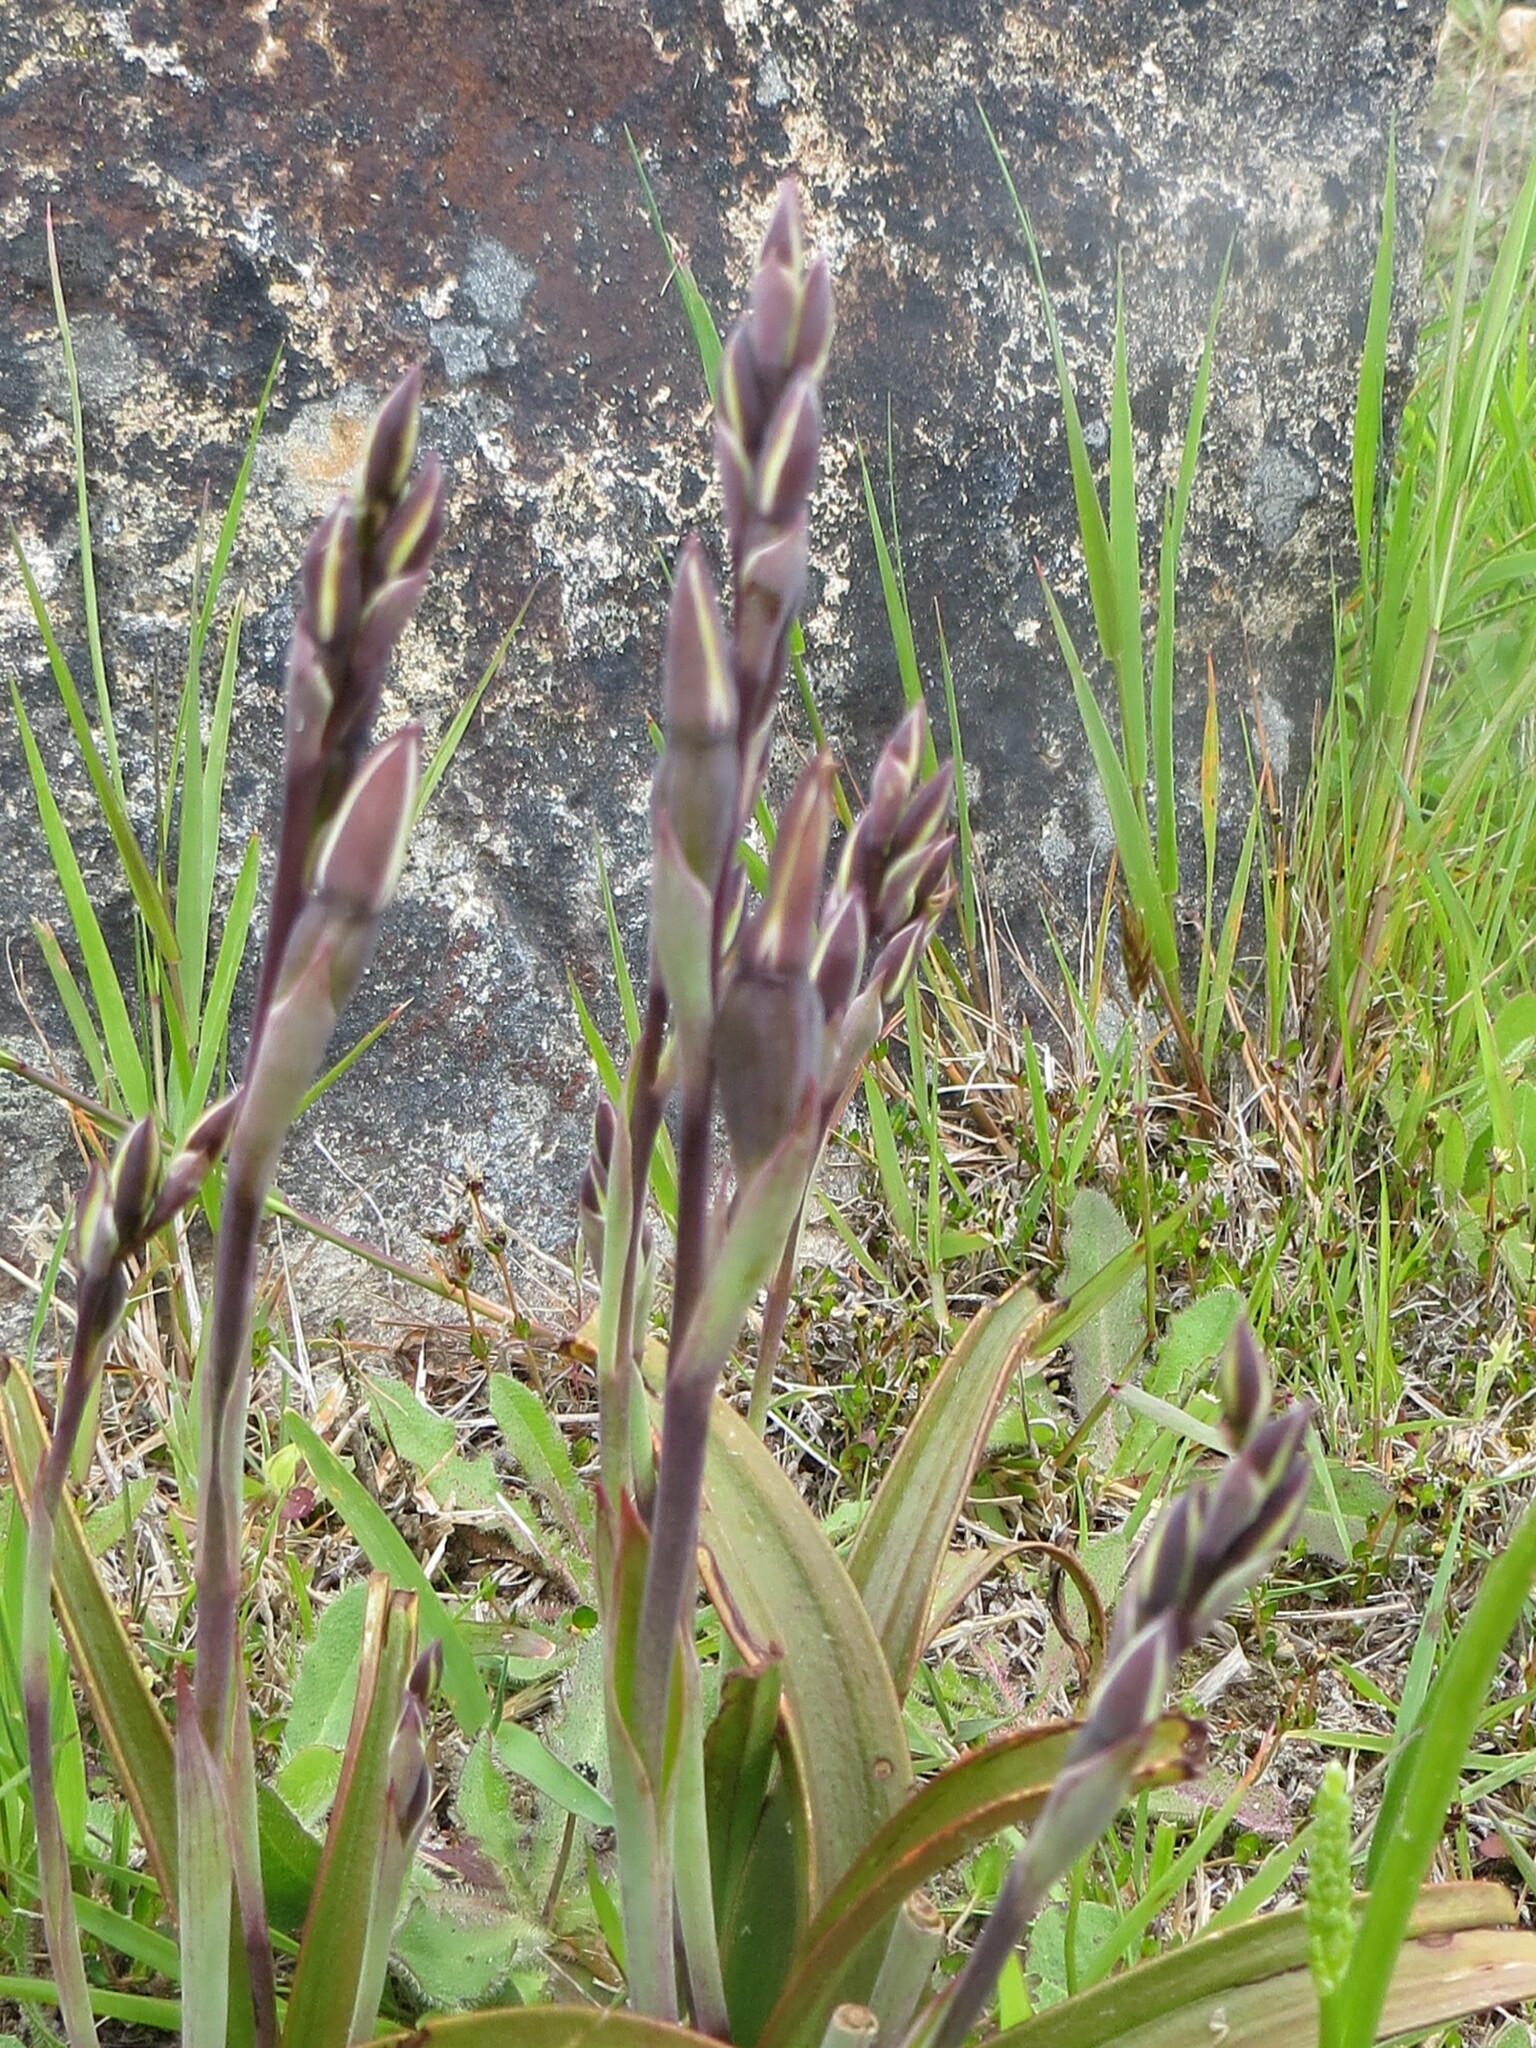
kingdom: Plantae
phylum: Tracheophyta
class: Liliopsida
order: Asparagales
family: Orchidaceae
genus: Thelymitra
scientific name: Thelymitra longifolia
